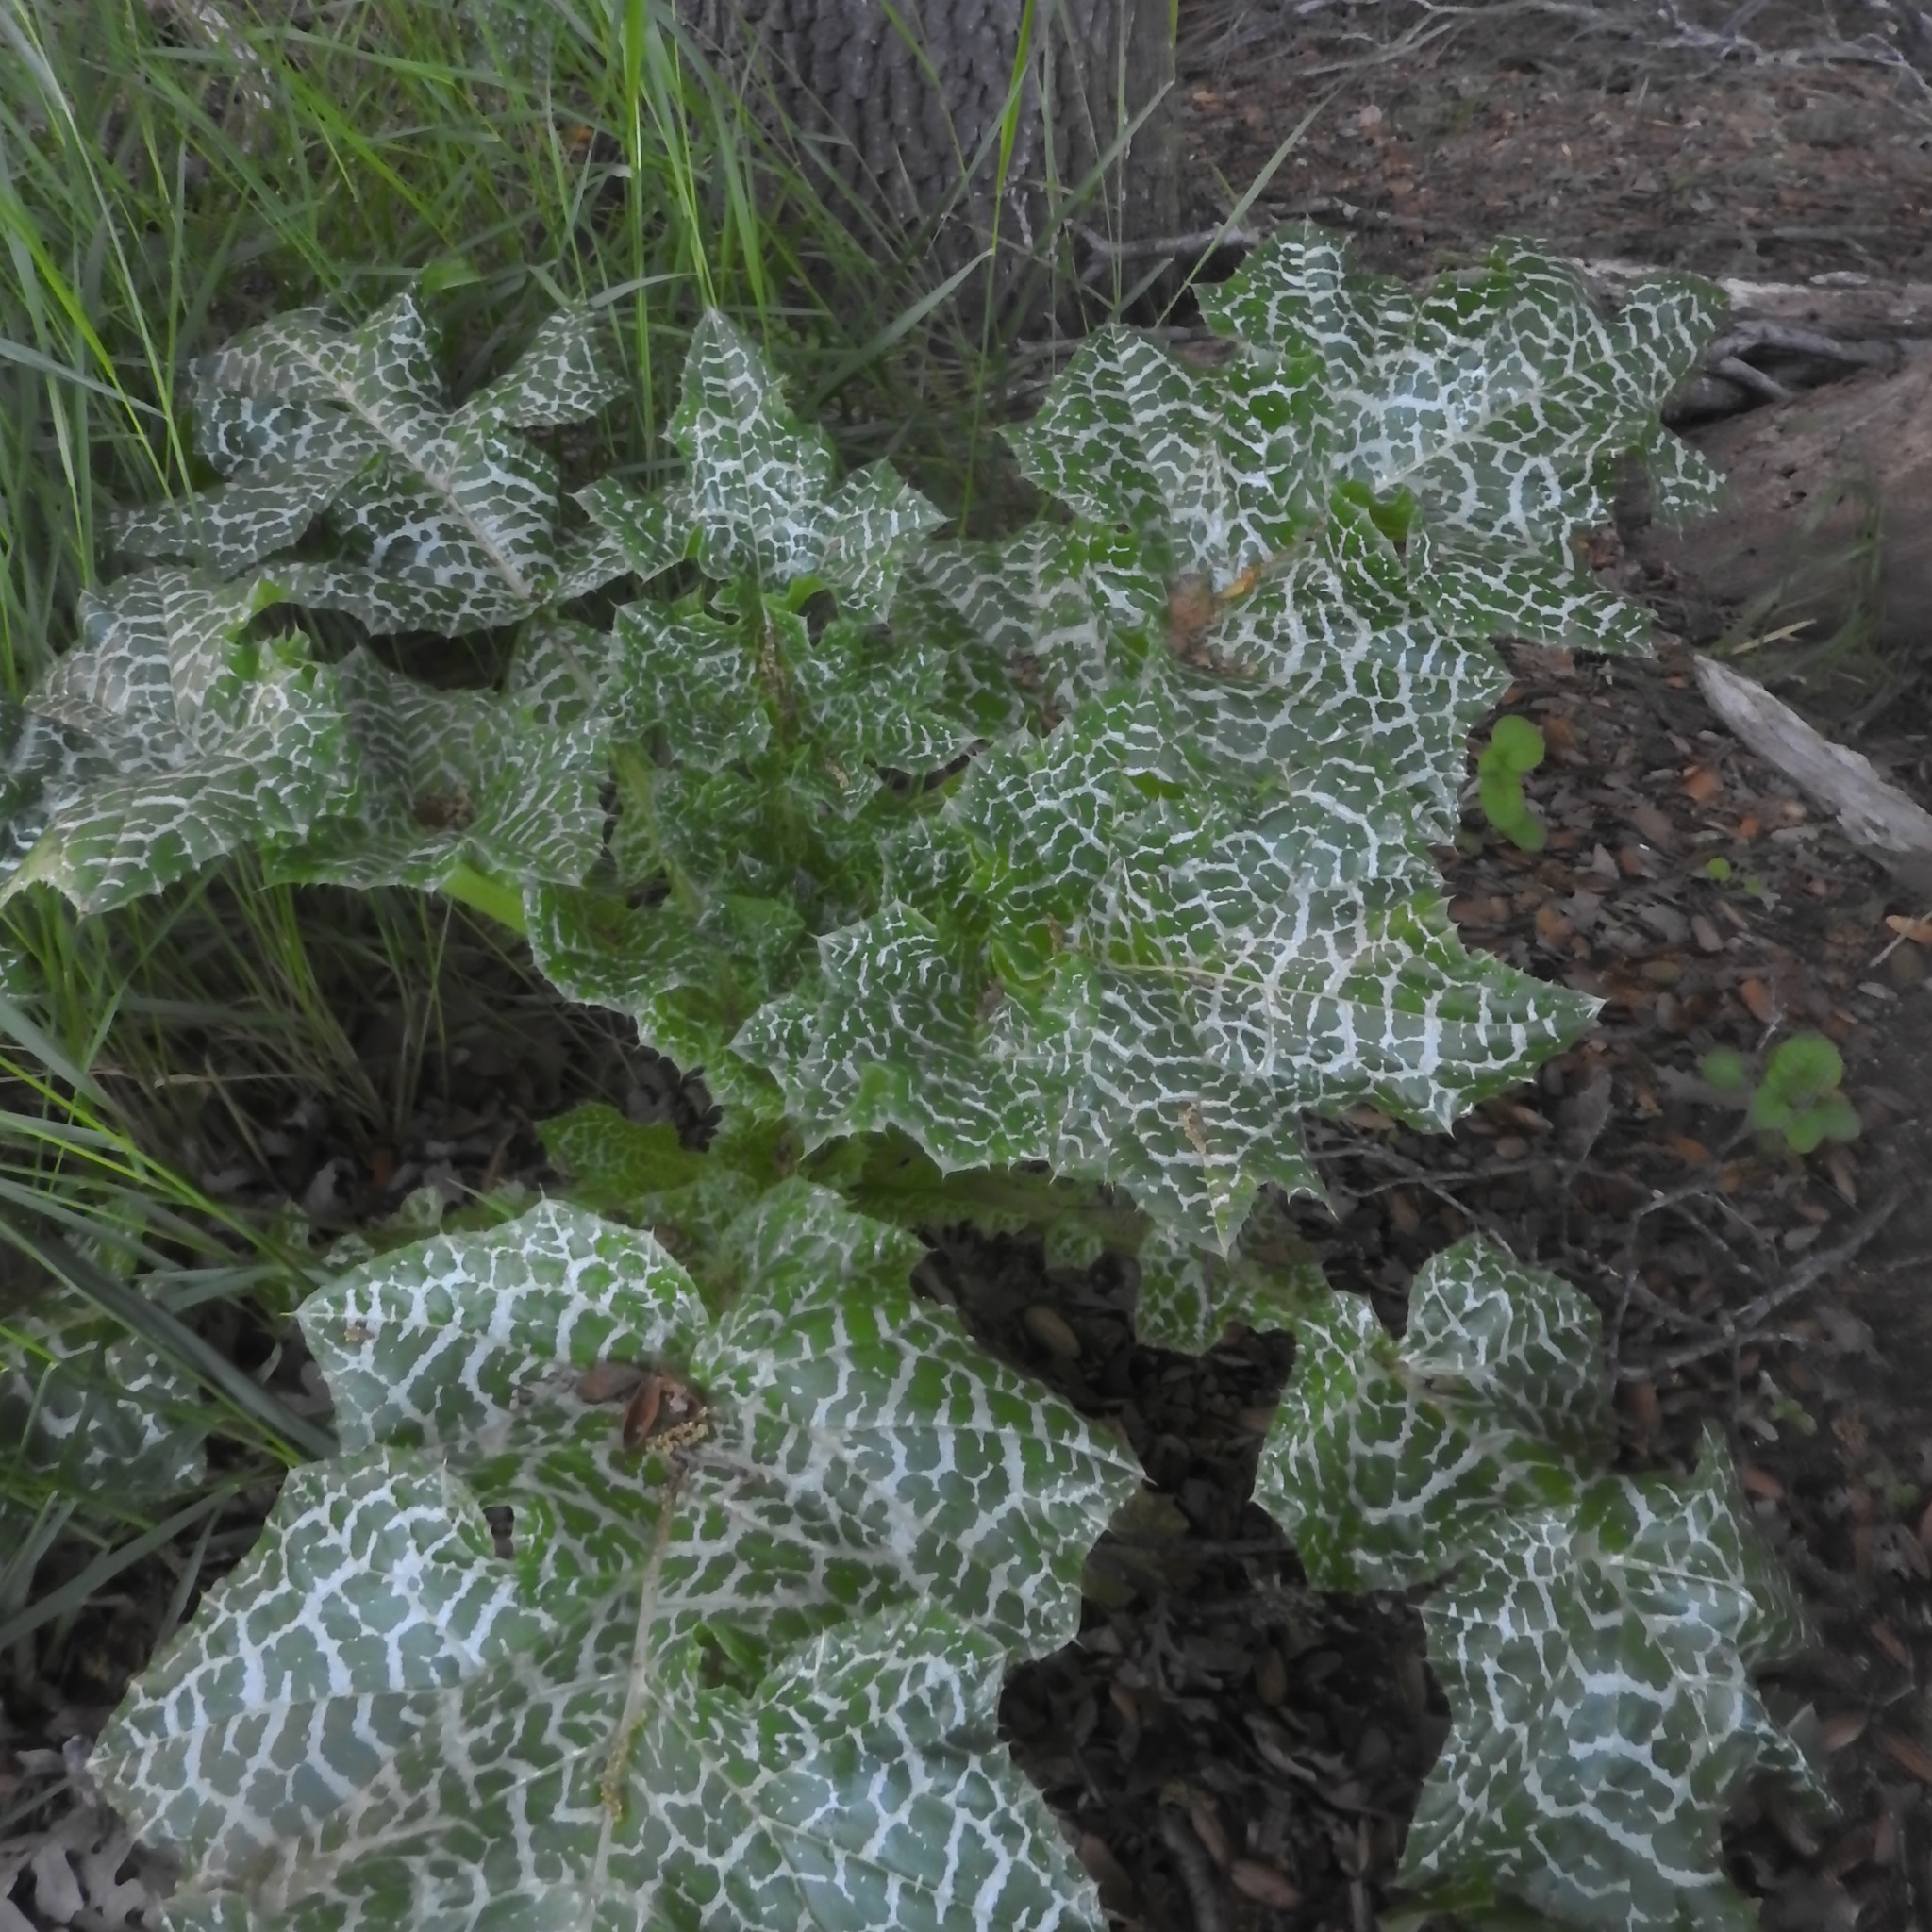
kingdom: Plantae
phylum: Tracheophyta
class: Magnoliopsida
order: Asterales
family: Asteraceae
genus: Silybum
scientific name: Silybum marianum
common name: Milk thistle
